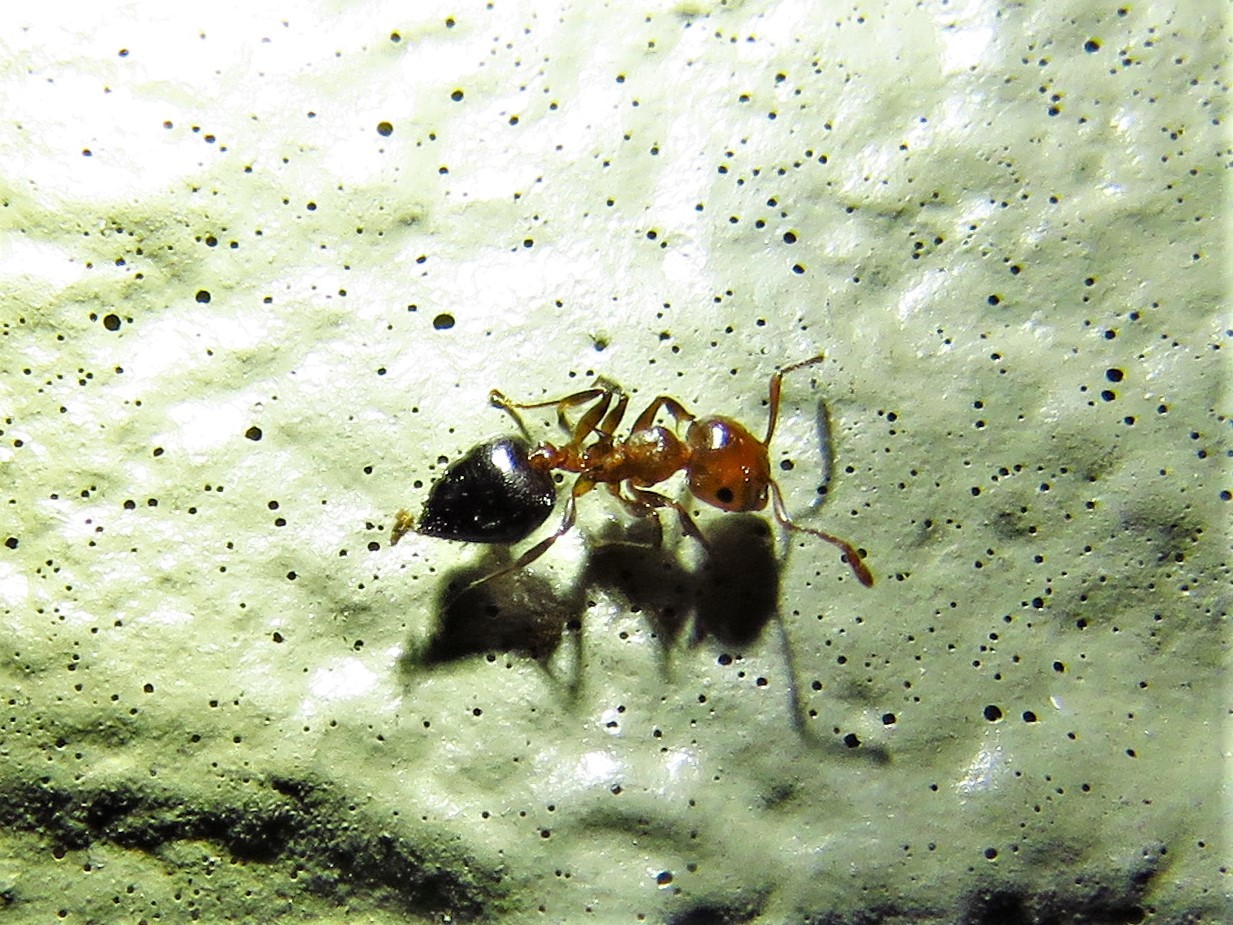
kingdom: Animalia
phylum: Arthropoda
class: Insecta
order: Hymenoptera
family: Formicidae
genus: Crematogaster
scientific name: Crematogaster laeviuscula
